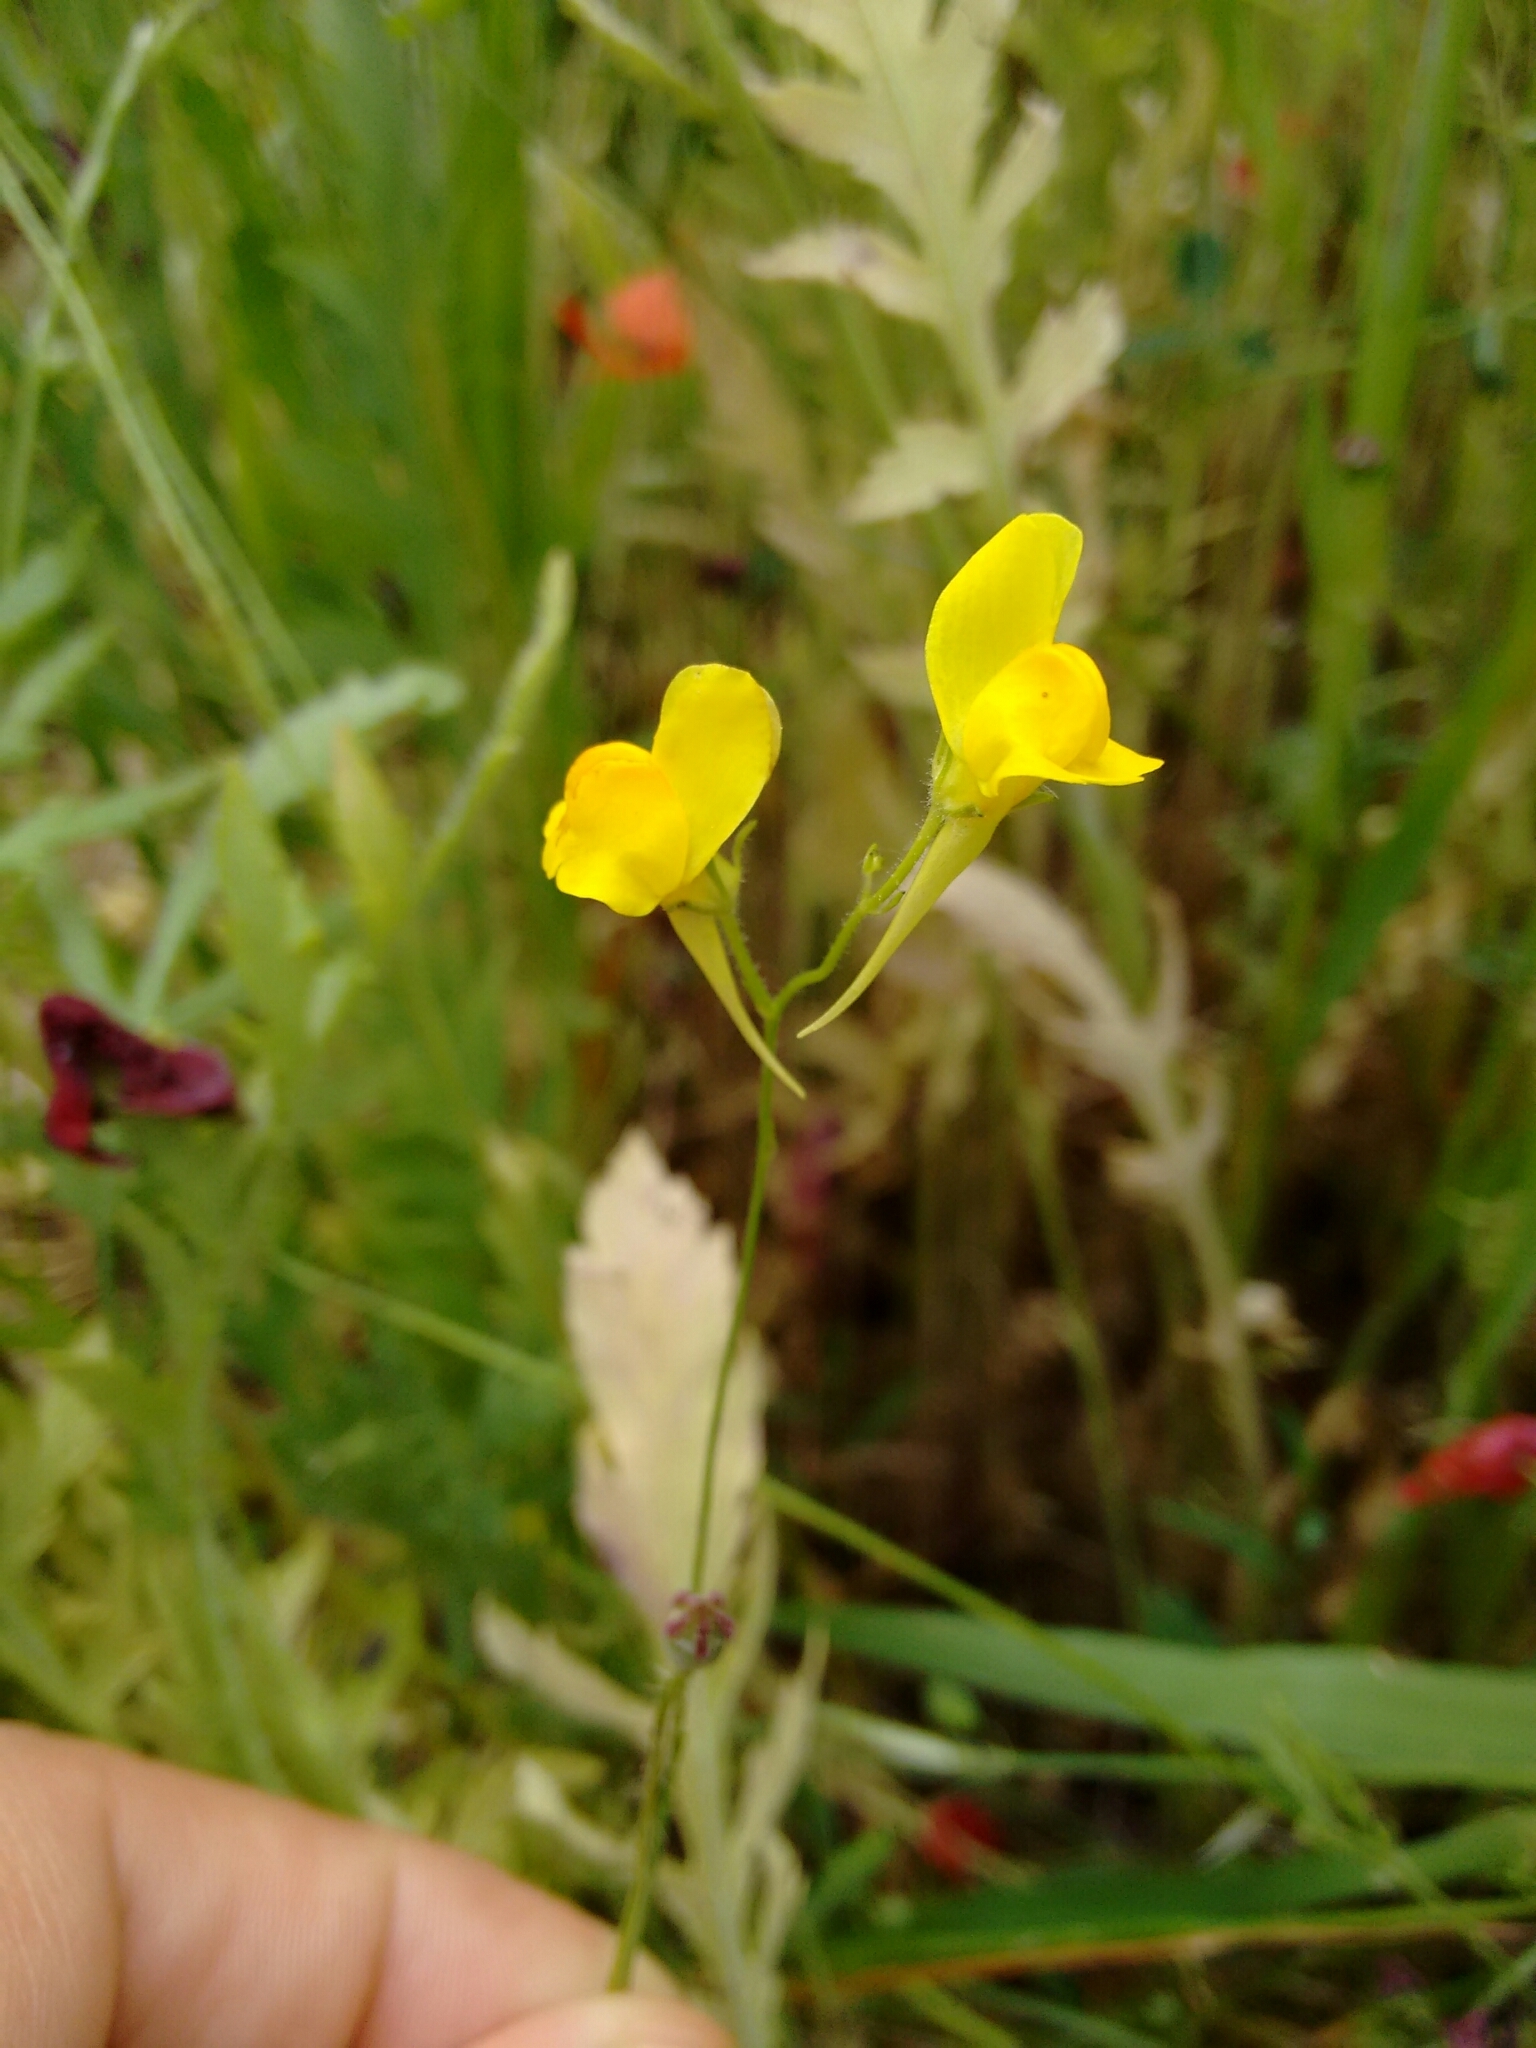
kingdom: Plantae
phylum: Tracheophyta
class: Magnoliopsida
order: Lamiales
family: Plantaginaceae
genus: Linaria
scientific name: Linaria spartea
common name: Ballast toadflax
